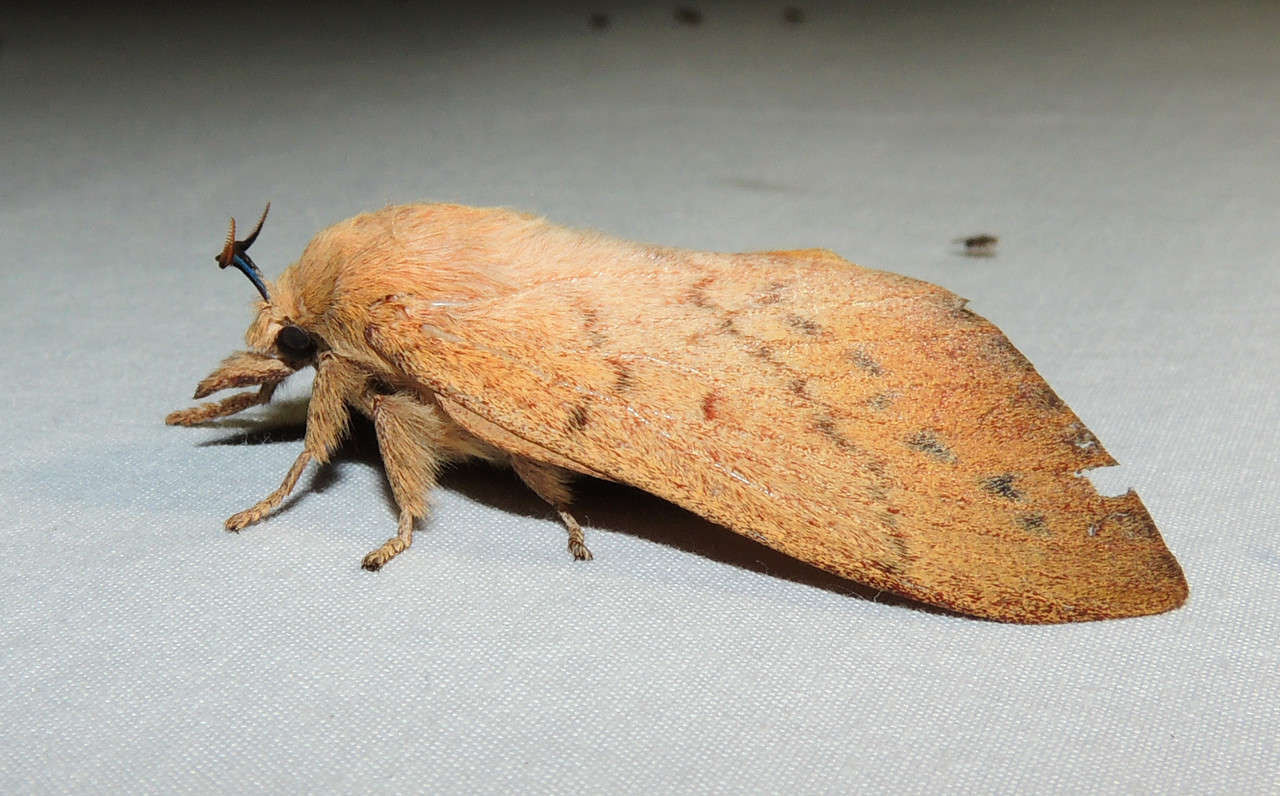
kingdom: Animalia
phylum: Arthropoda
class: Insecta
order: Lepidoptera
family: Lasiocampidae
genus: Entometa
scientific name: Entometa fervens
